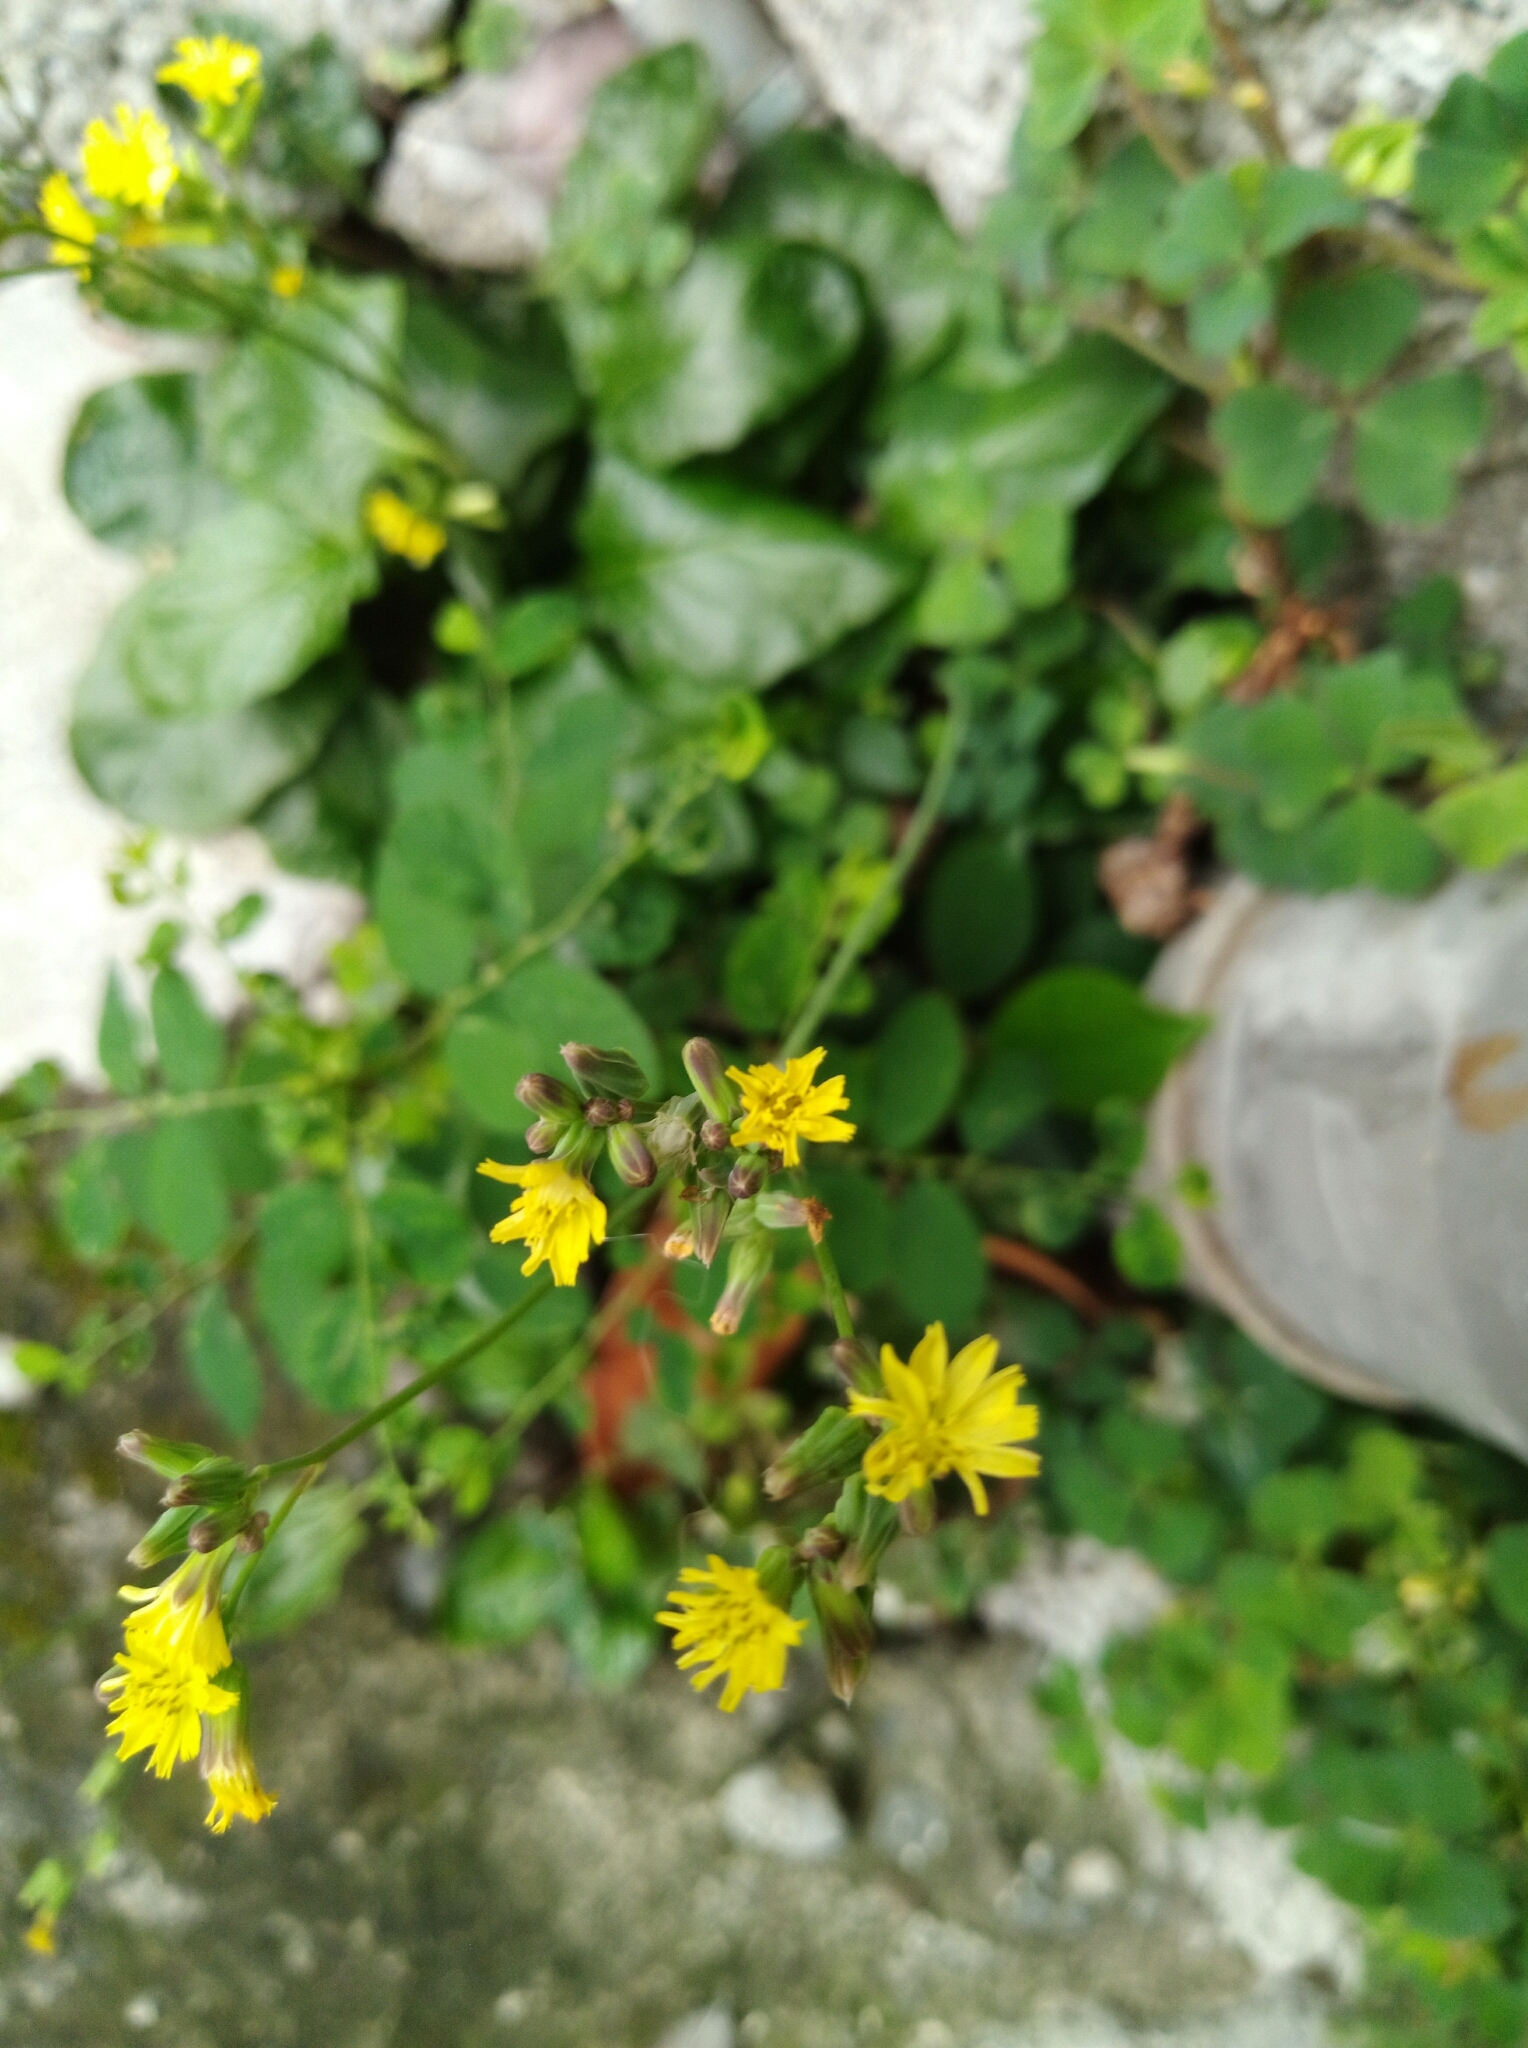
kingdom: Plantae
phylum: Tracheophyta
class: Magnoliopsida
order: Asterales
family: Asteraceae
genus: Youngia
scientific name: Youngia japonica
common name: Oriental false hawksbeard
